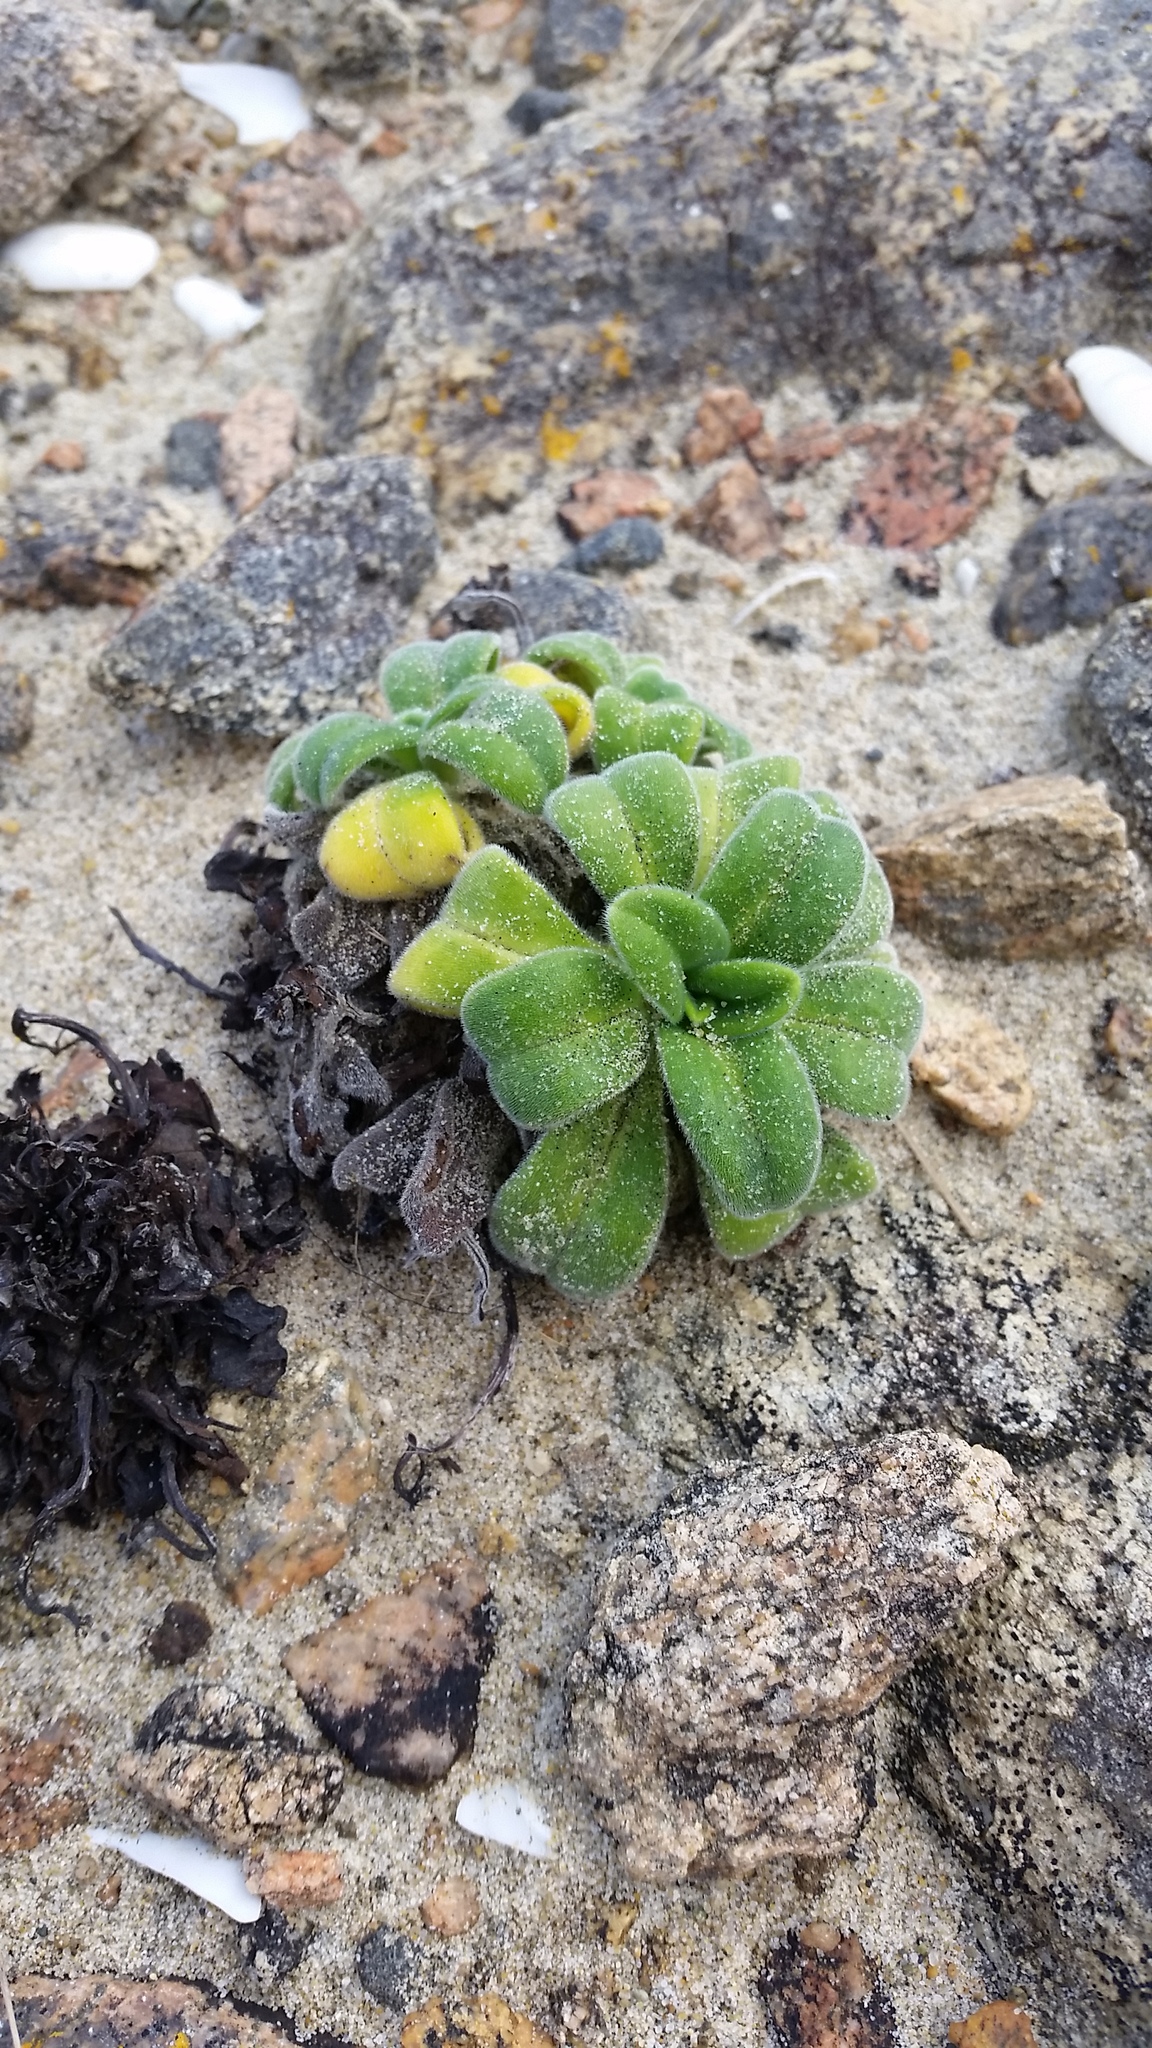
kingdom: Plantae
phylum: Tracheophyta
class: Magnoliopsida
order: Boraginales
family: Boraginaceae
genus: Myosotis
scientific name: Myosotis rakiura
